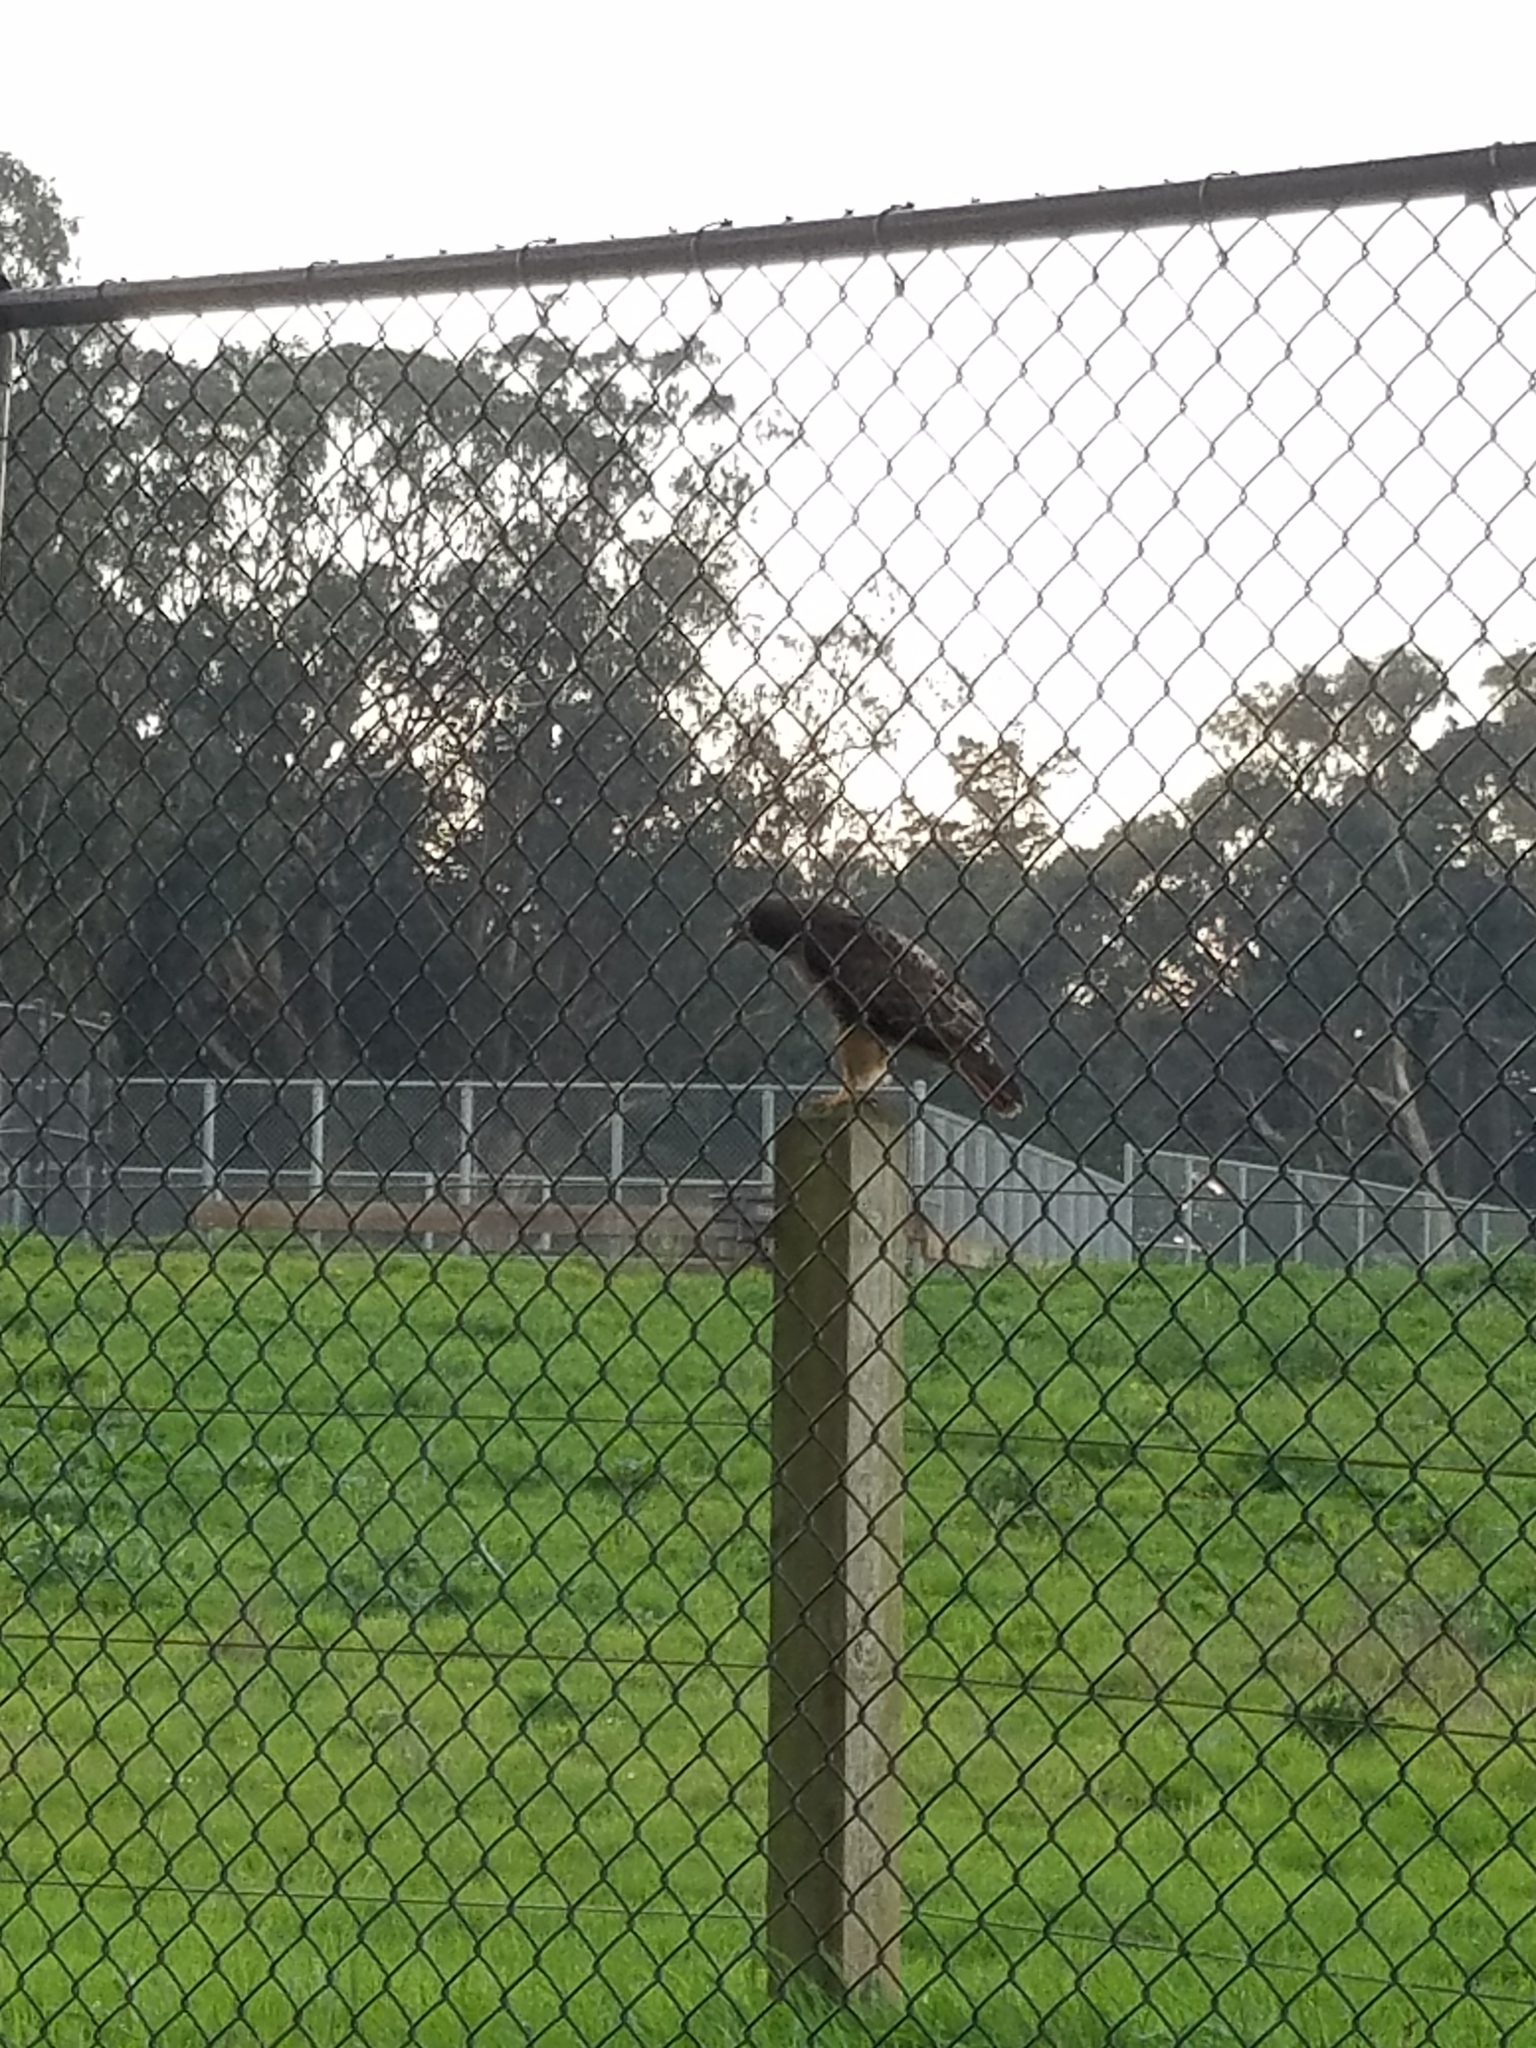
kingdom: Animalia
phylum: Chordata
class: Aves
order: Accipitriformes
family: Accipitridae
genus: Buteo
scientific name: Buteo jamaicensis
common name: Red-tailed hawk
